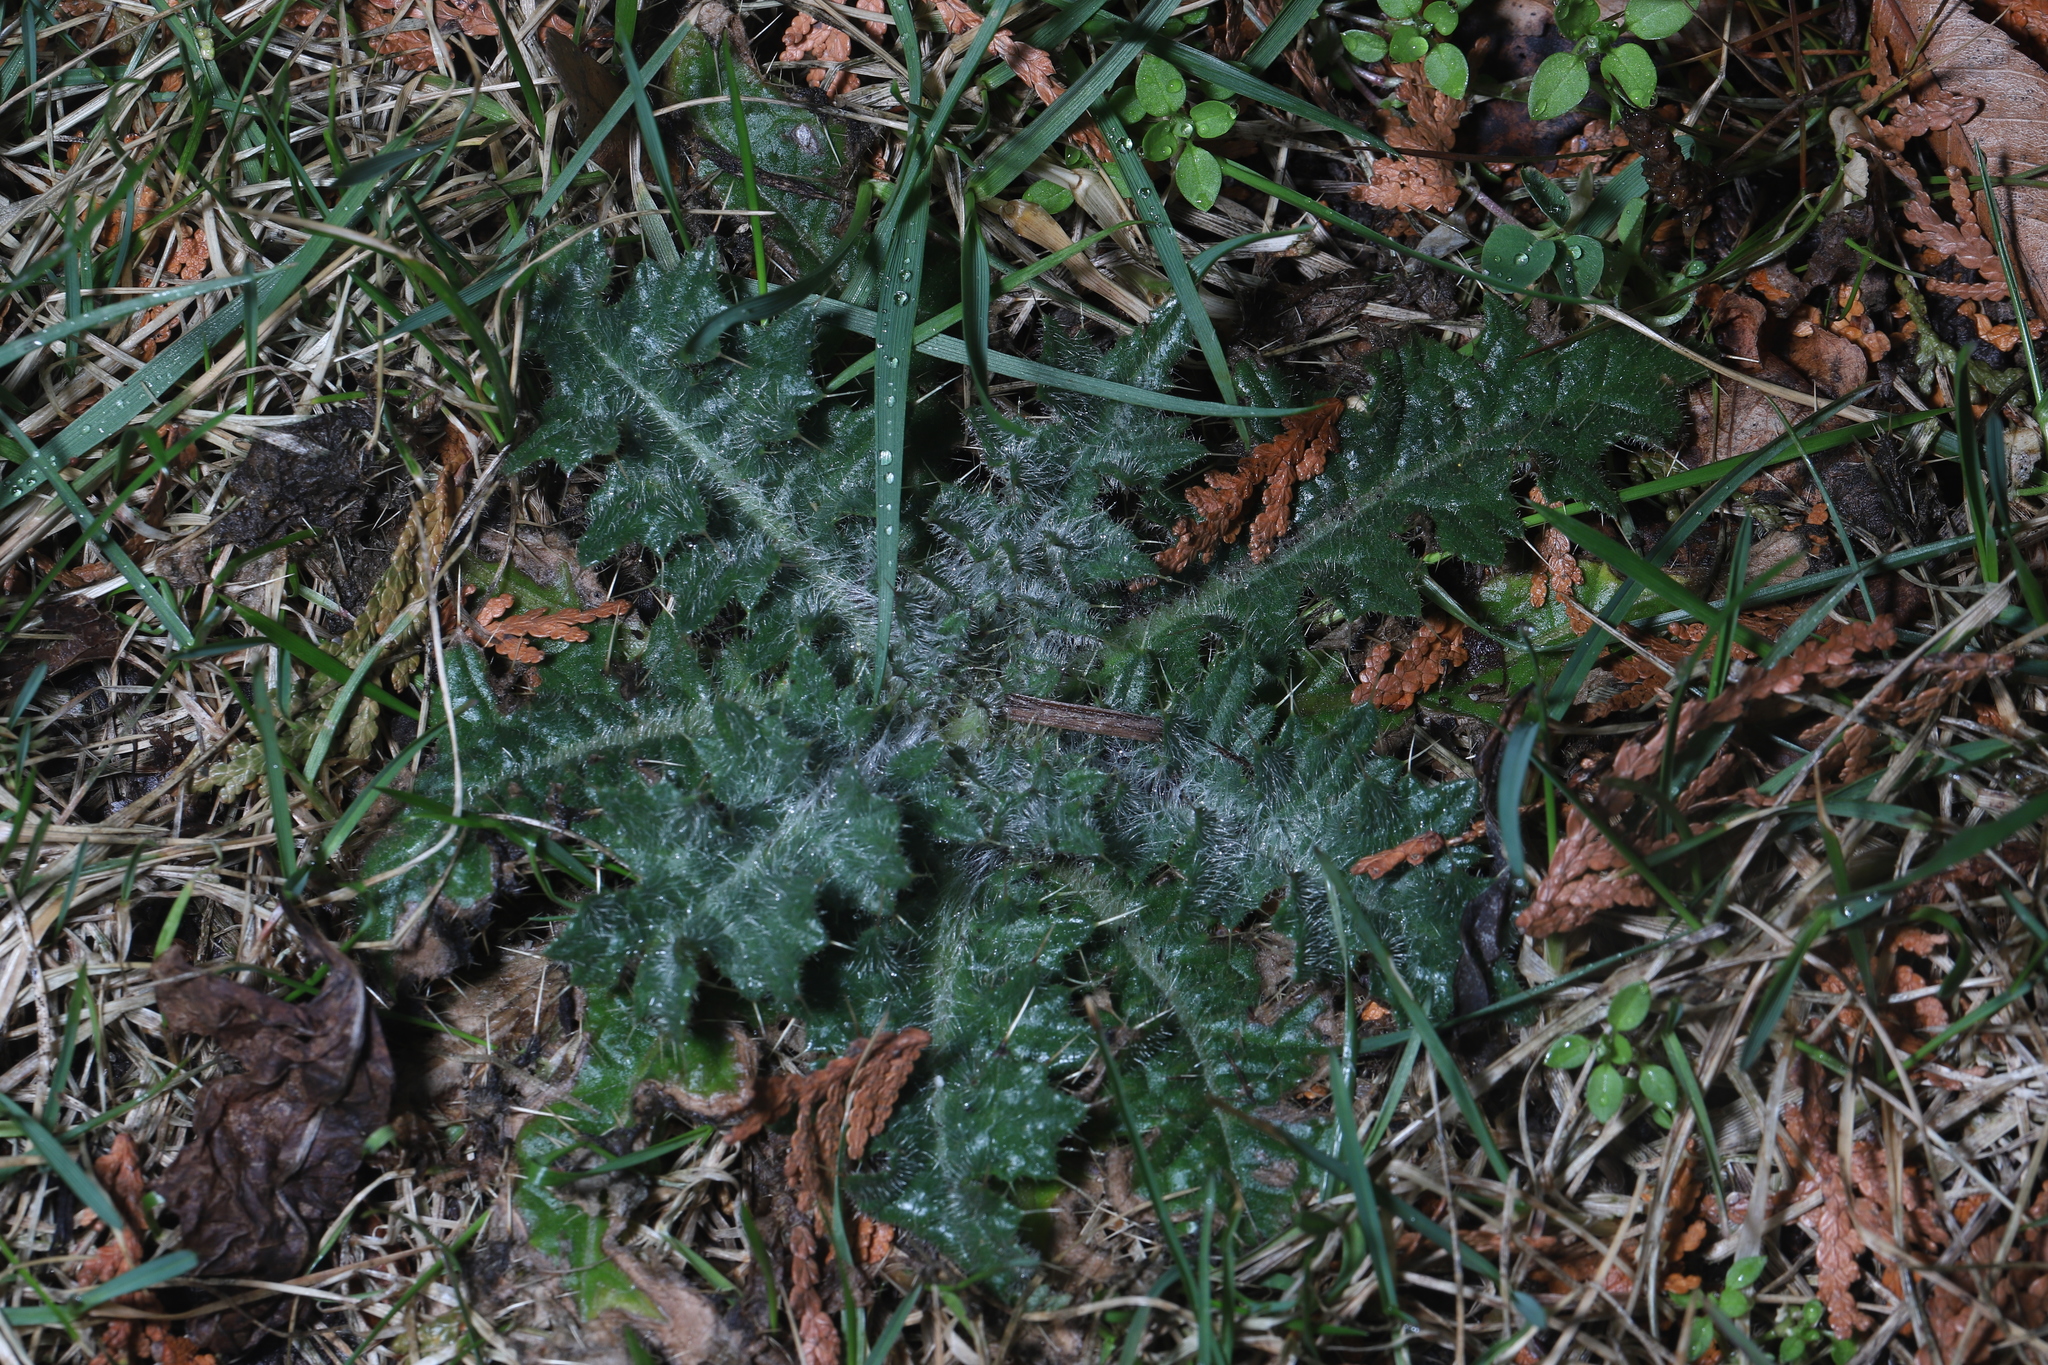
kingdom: Plantae
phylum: Tracheophyta
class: Magnoliopsida
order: Asterales
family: Asteraceae
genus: Cirsium
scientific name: Cirsium vulgare
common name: Bull thistle
